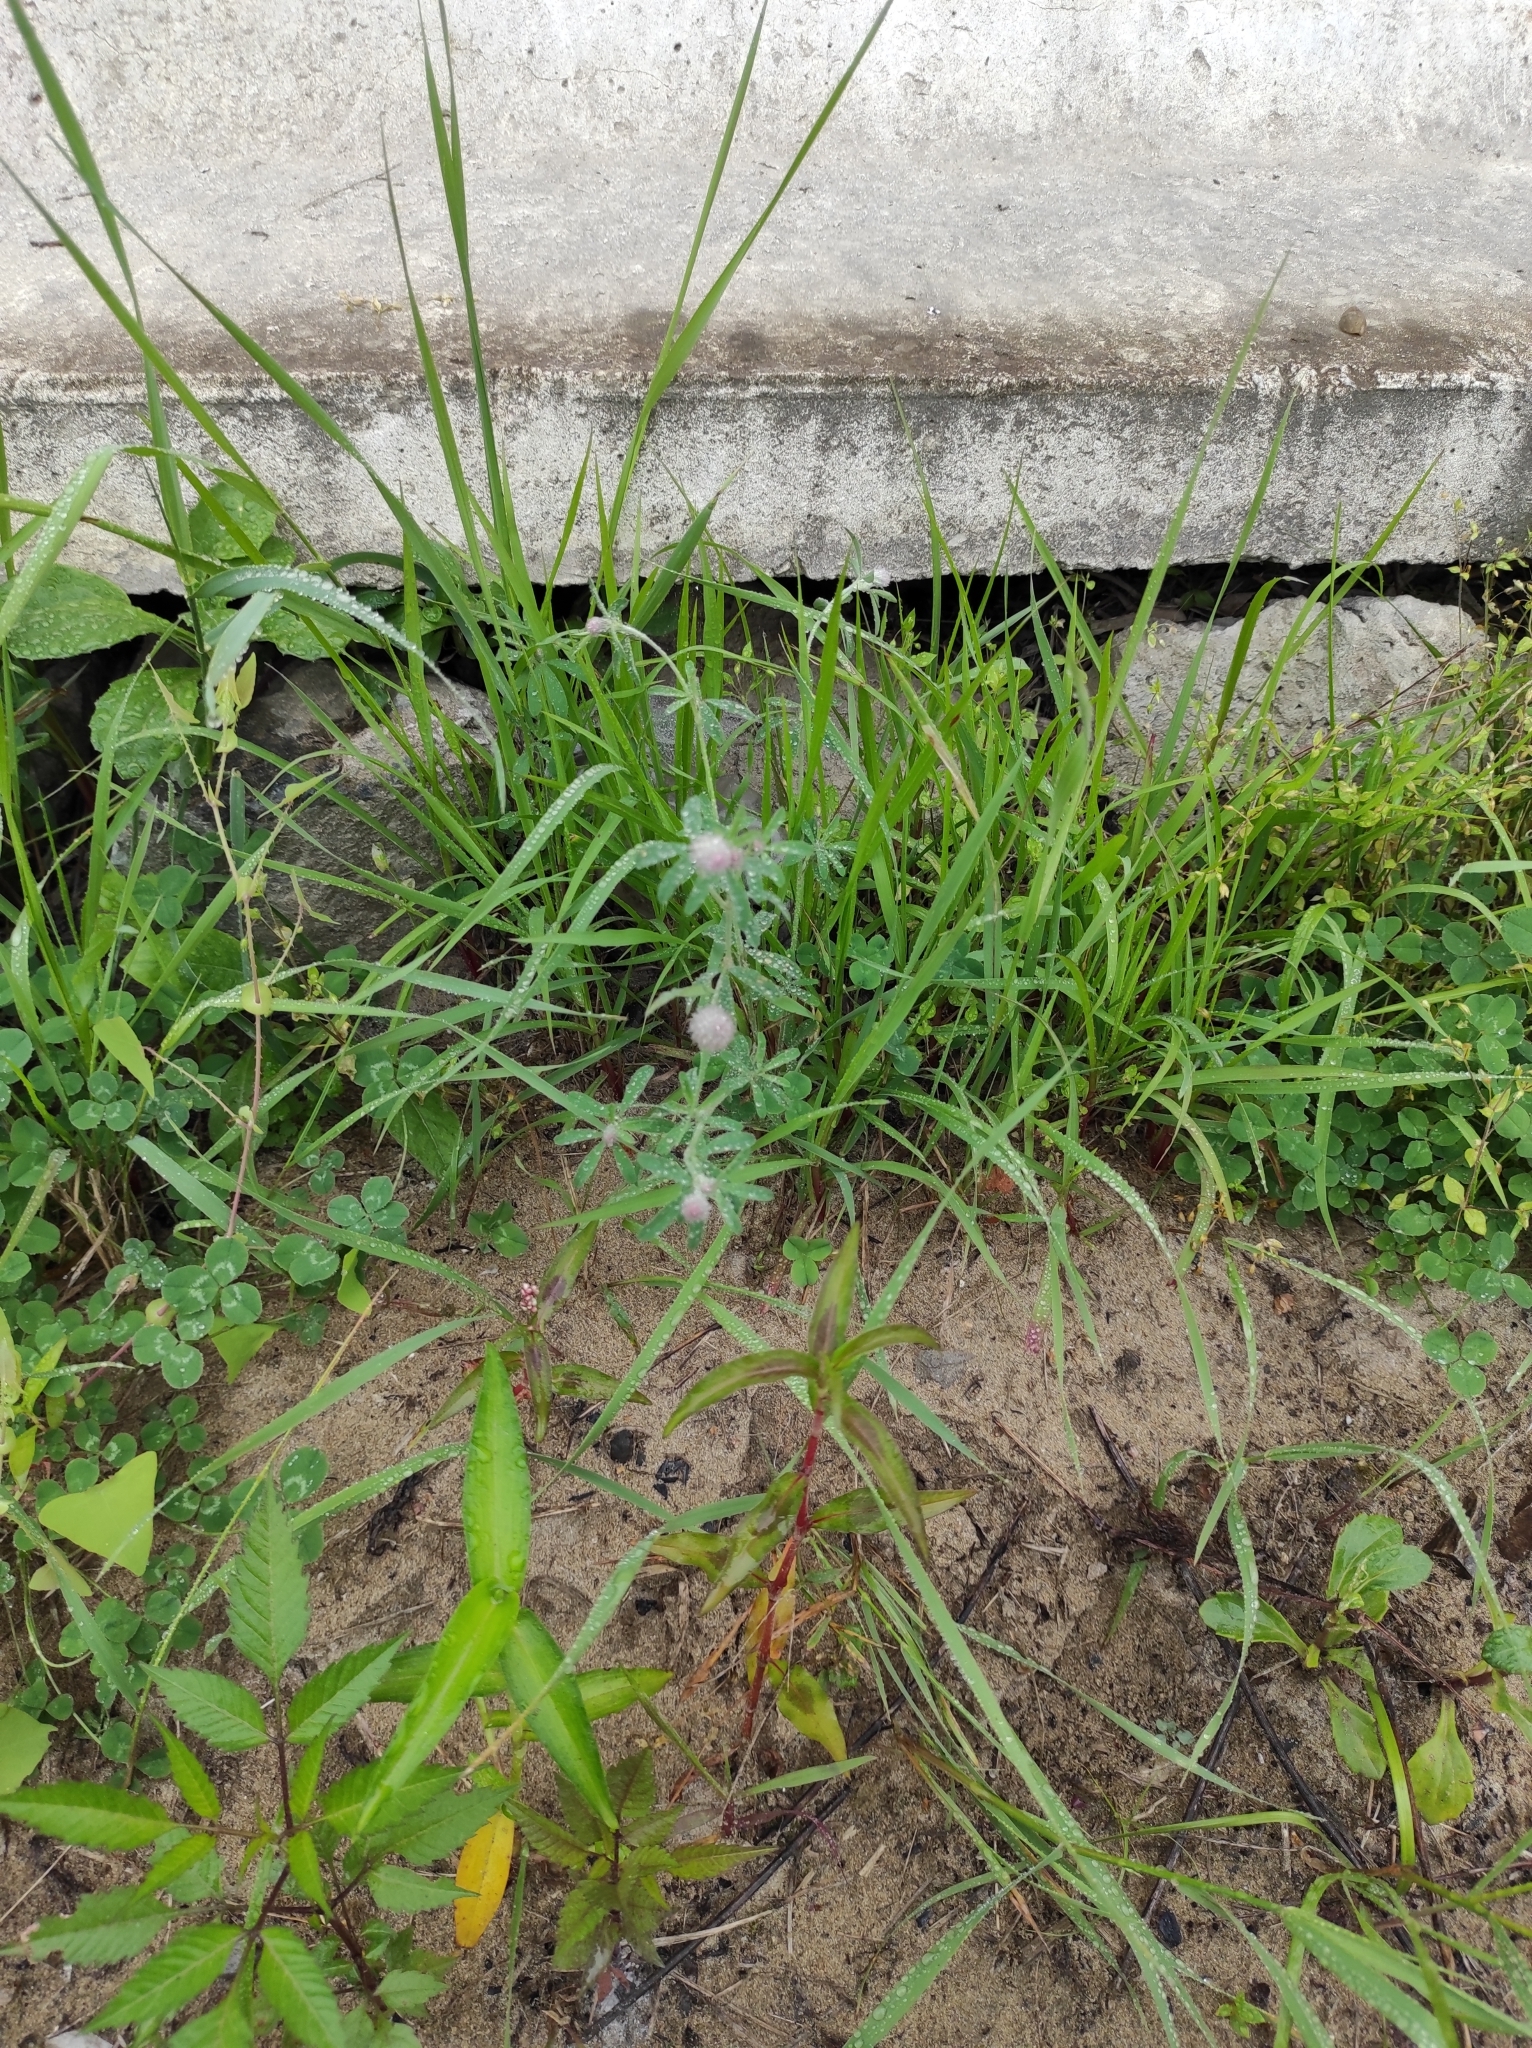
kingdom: Plantae
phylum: Tracheophyta
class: Magnoliopsida
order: Fabales
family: Fabaceae
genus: Trifolium
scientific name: Trifolium arvense
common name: Hare's-foot clover
